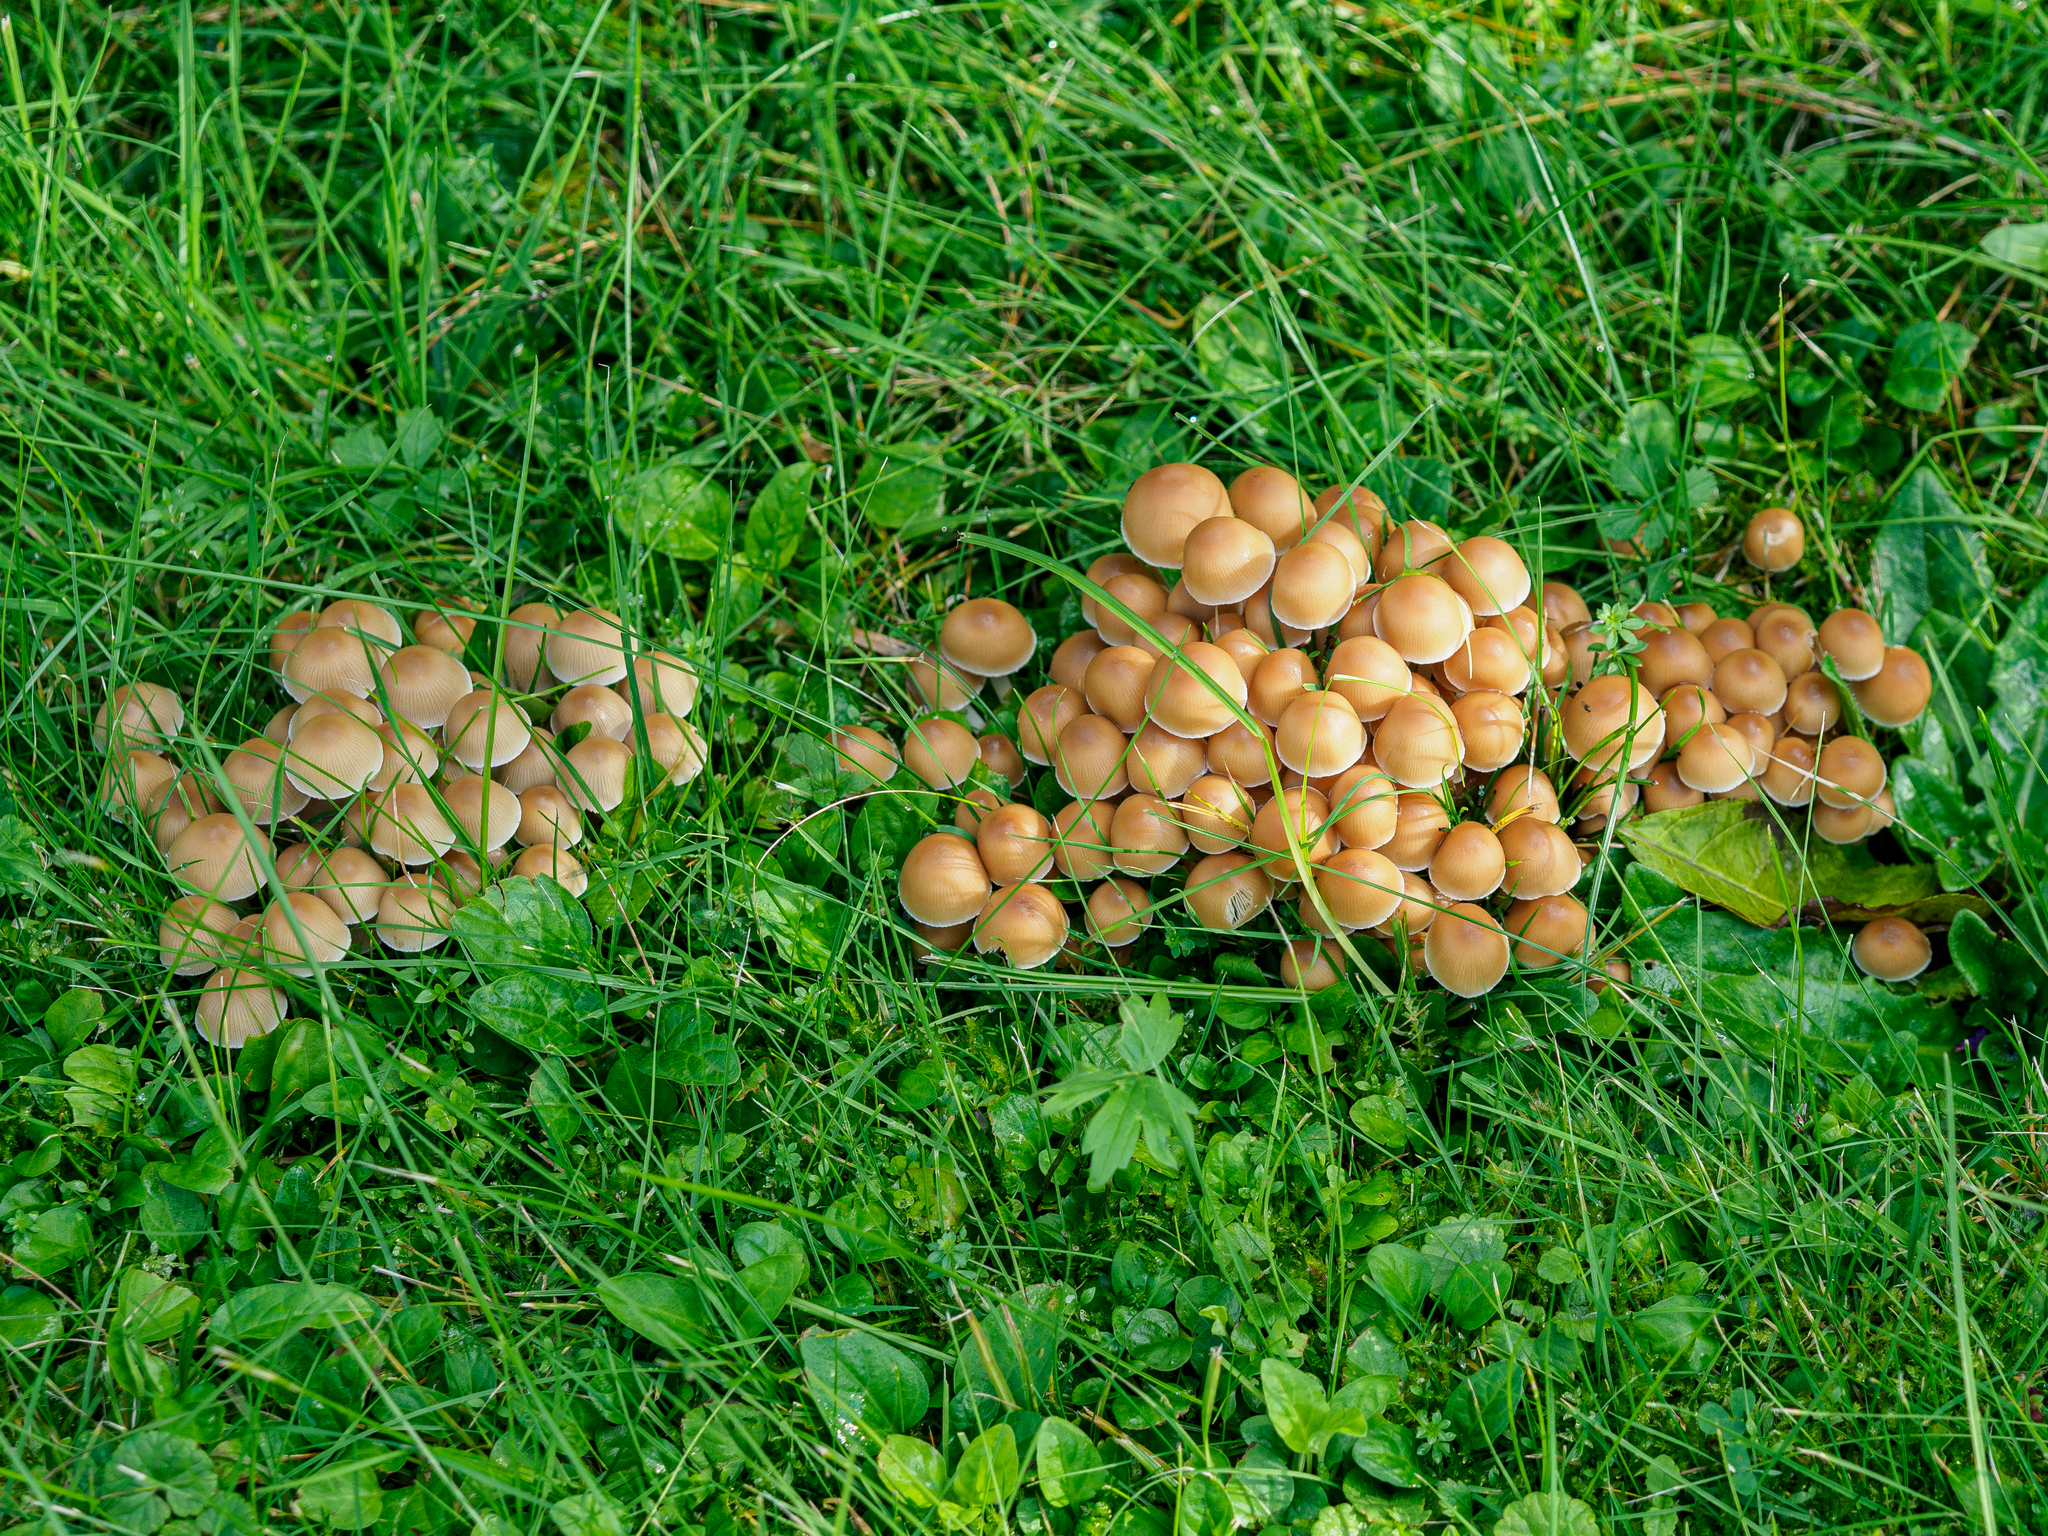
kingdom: Fungi
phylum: Basidiomycota
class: Agaricomycetes
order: Agaricales
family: Psathyrellaceae
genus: Britzelmayria
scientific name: Britzelmayria multipedata
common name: Clustered brittlestem
